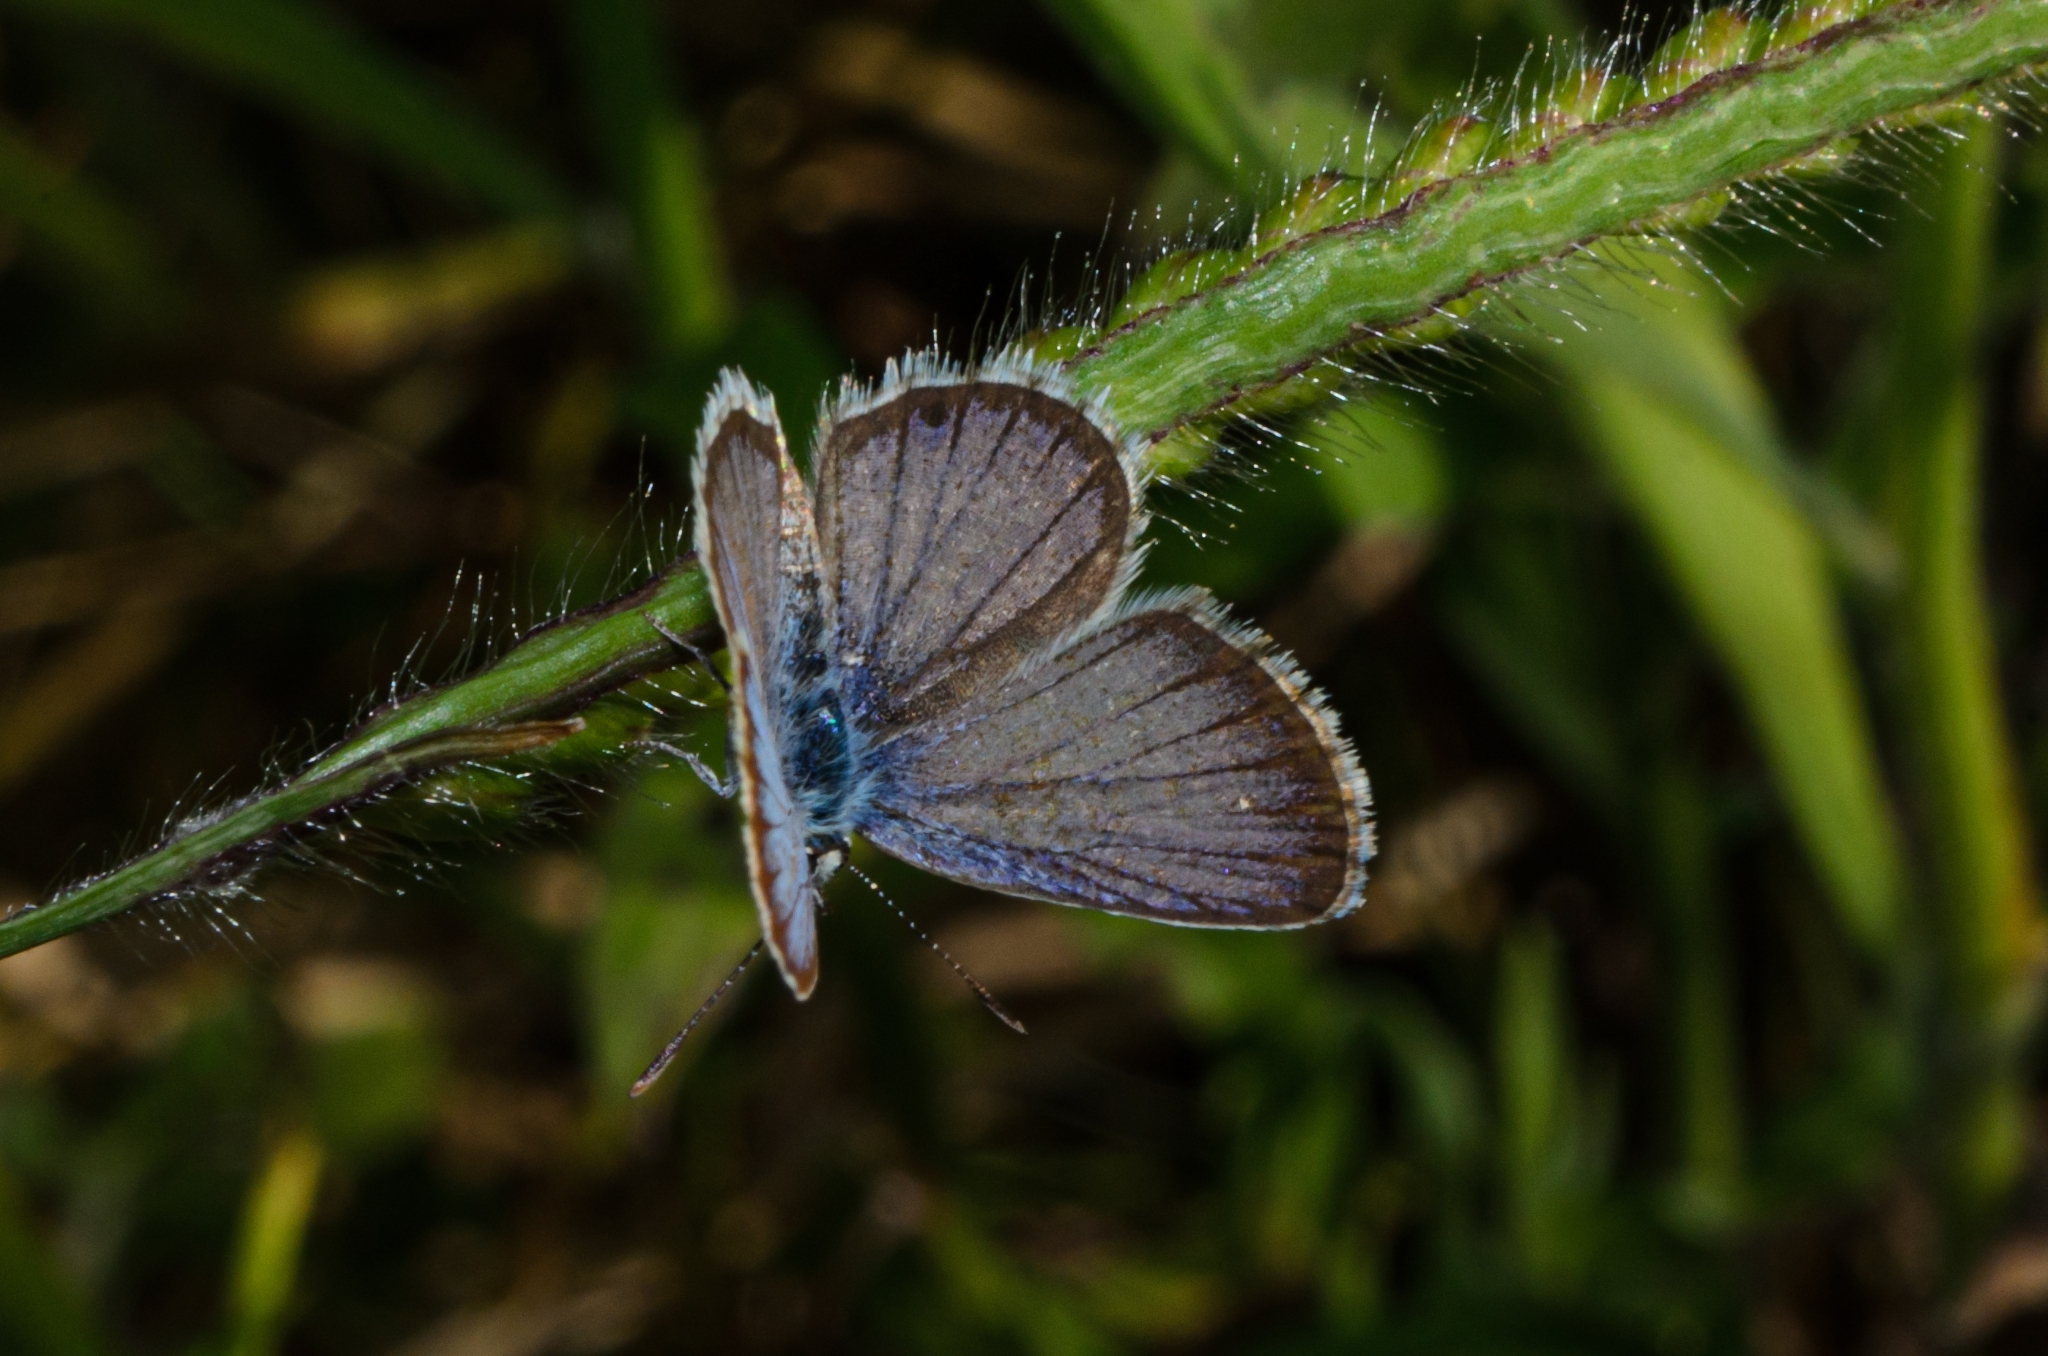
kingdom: Animalia
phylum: Arthropoda
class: Insecta
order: Lepidoptera
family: Lycaenidae
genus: Hemiargus
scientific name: Hemiargus hanno
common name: Common blue
